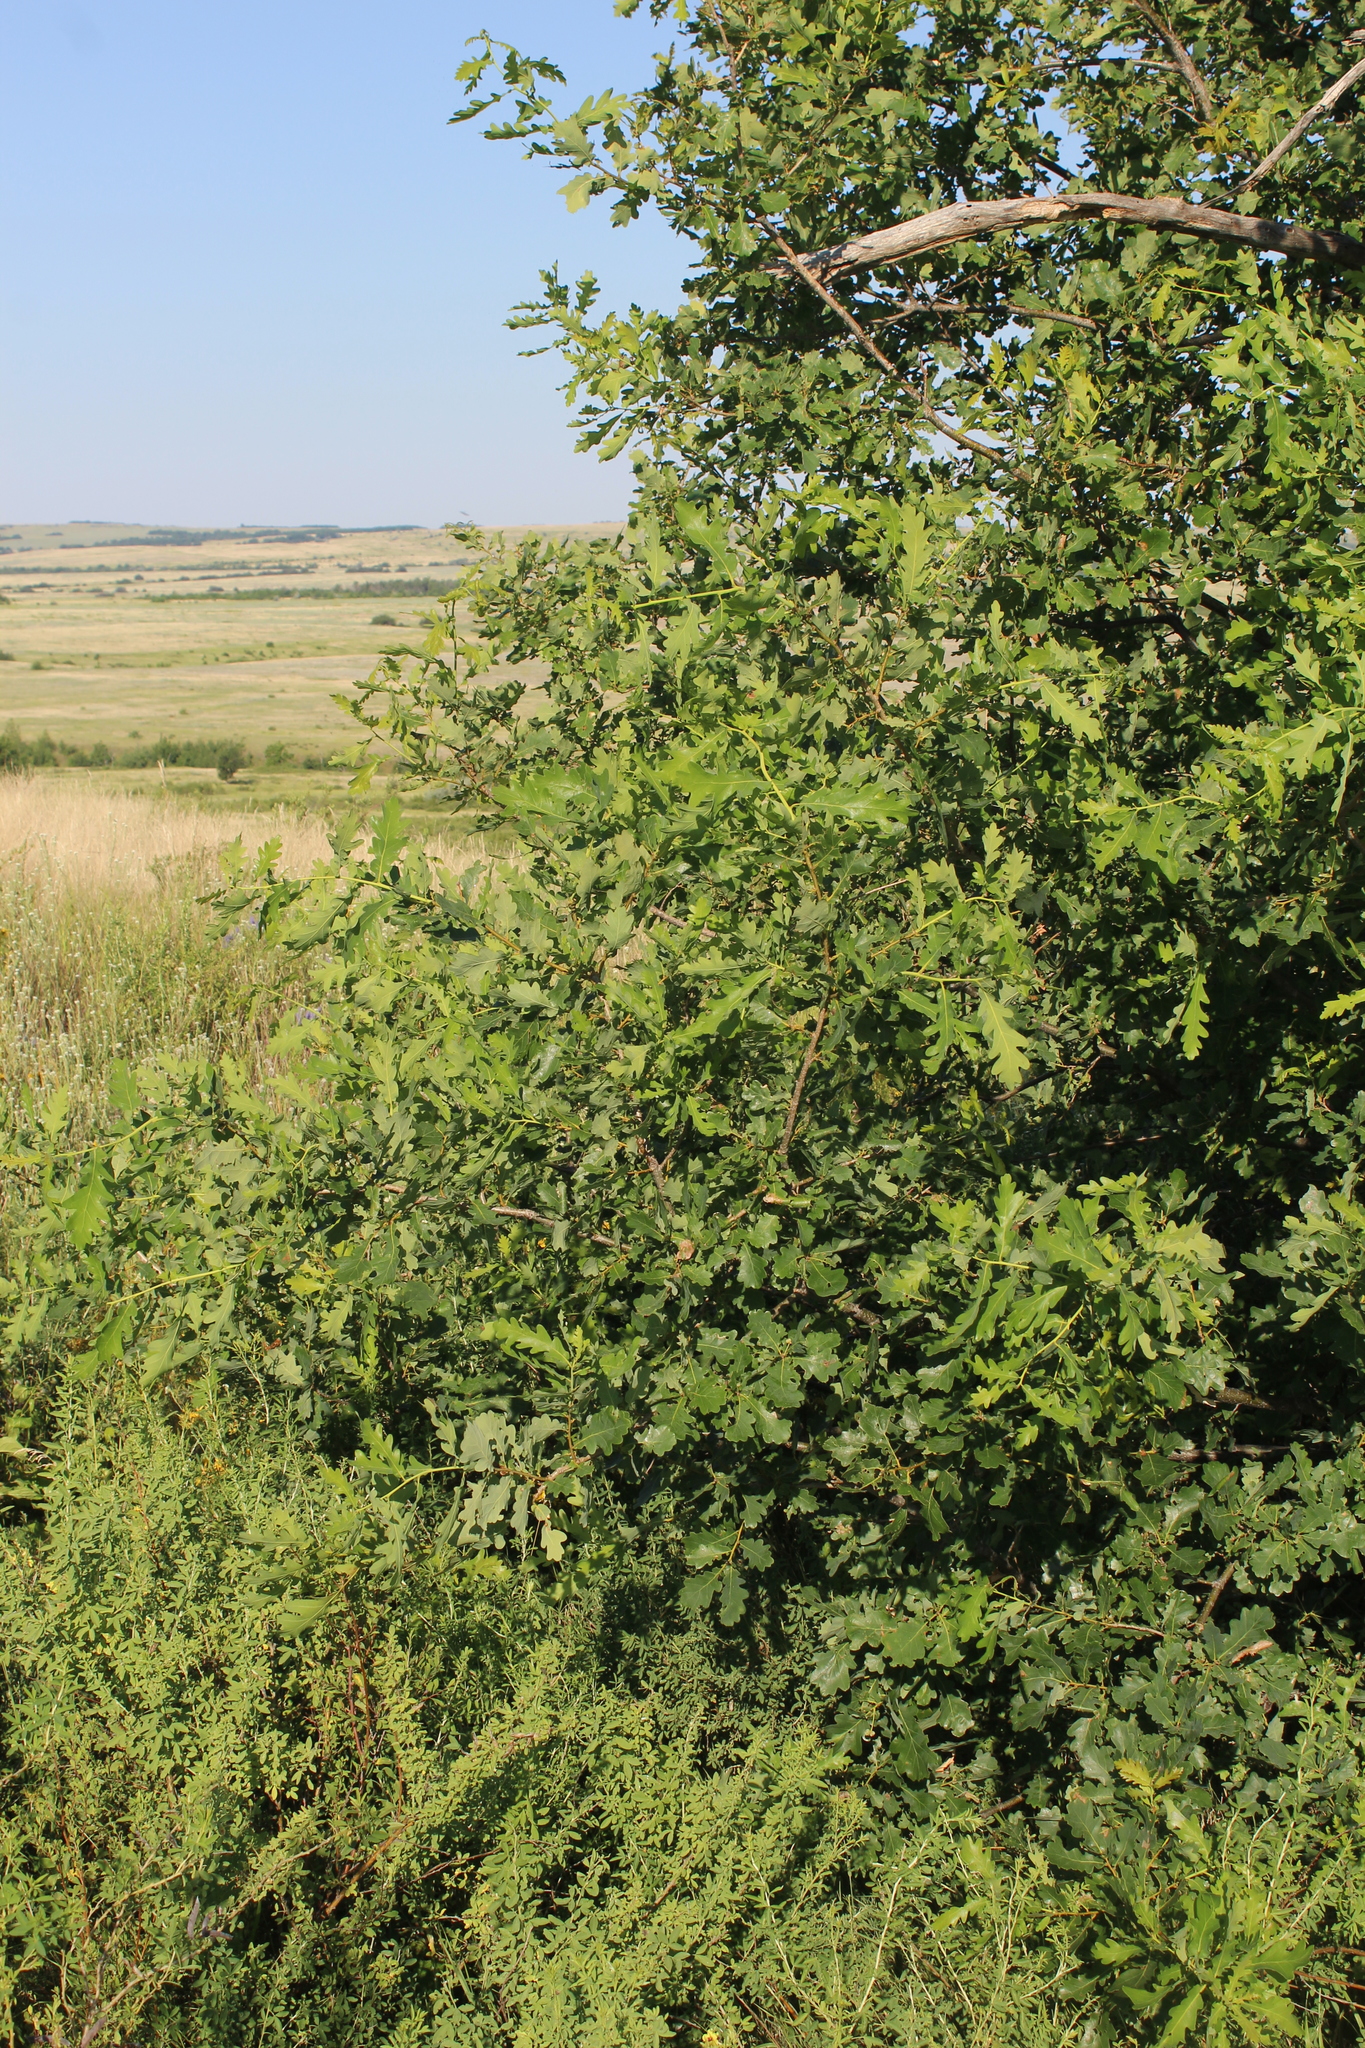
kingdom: Plantae
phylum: Tracheophyta
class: Magnoliopsida
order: Fagales
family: Fagaceae
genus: Quercus
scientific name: Quercus robur
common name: Pedunculate oak
